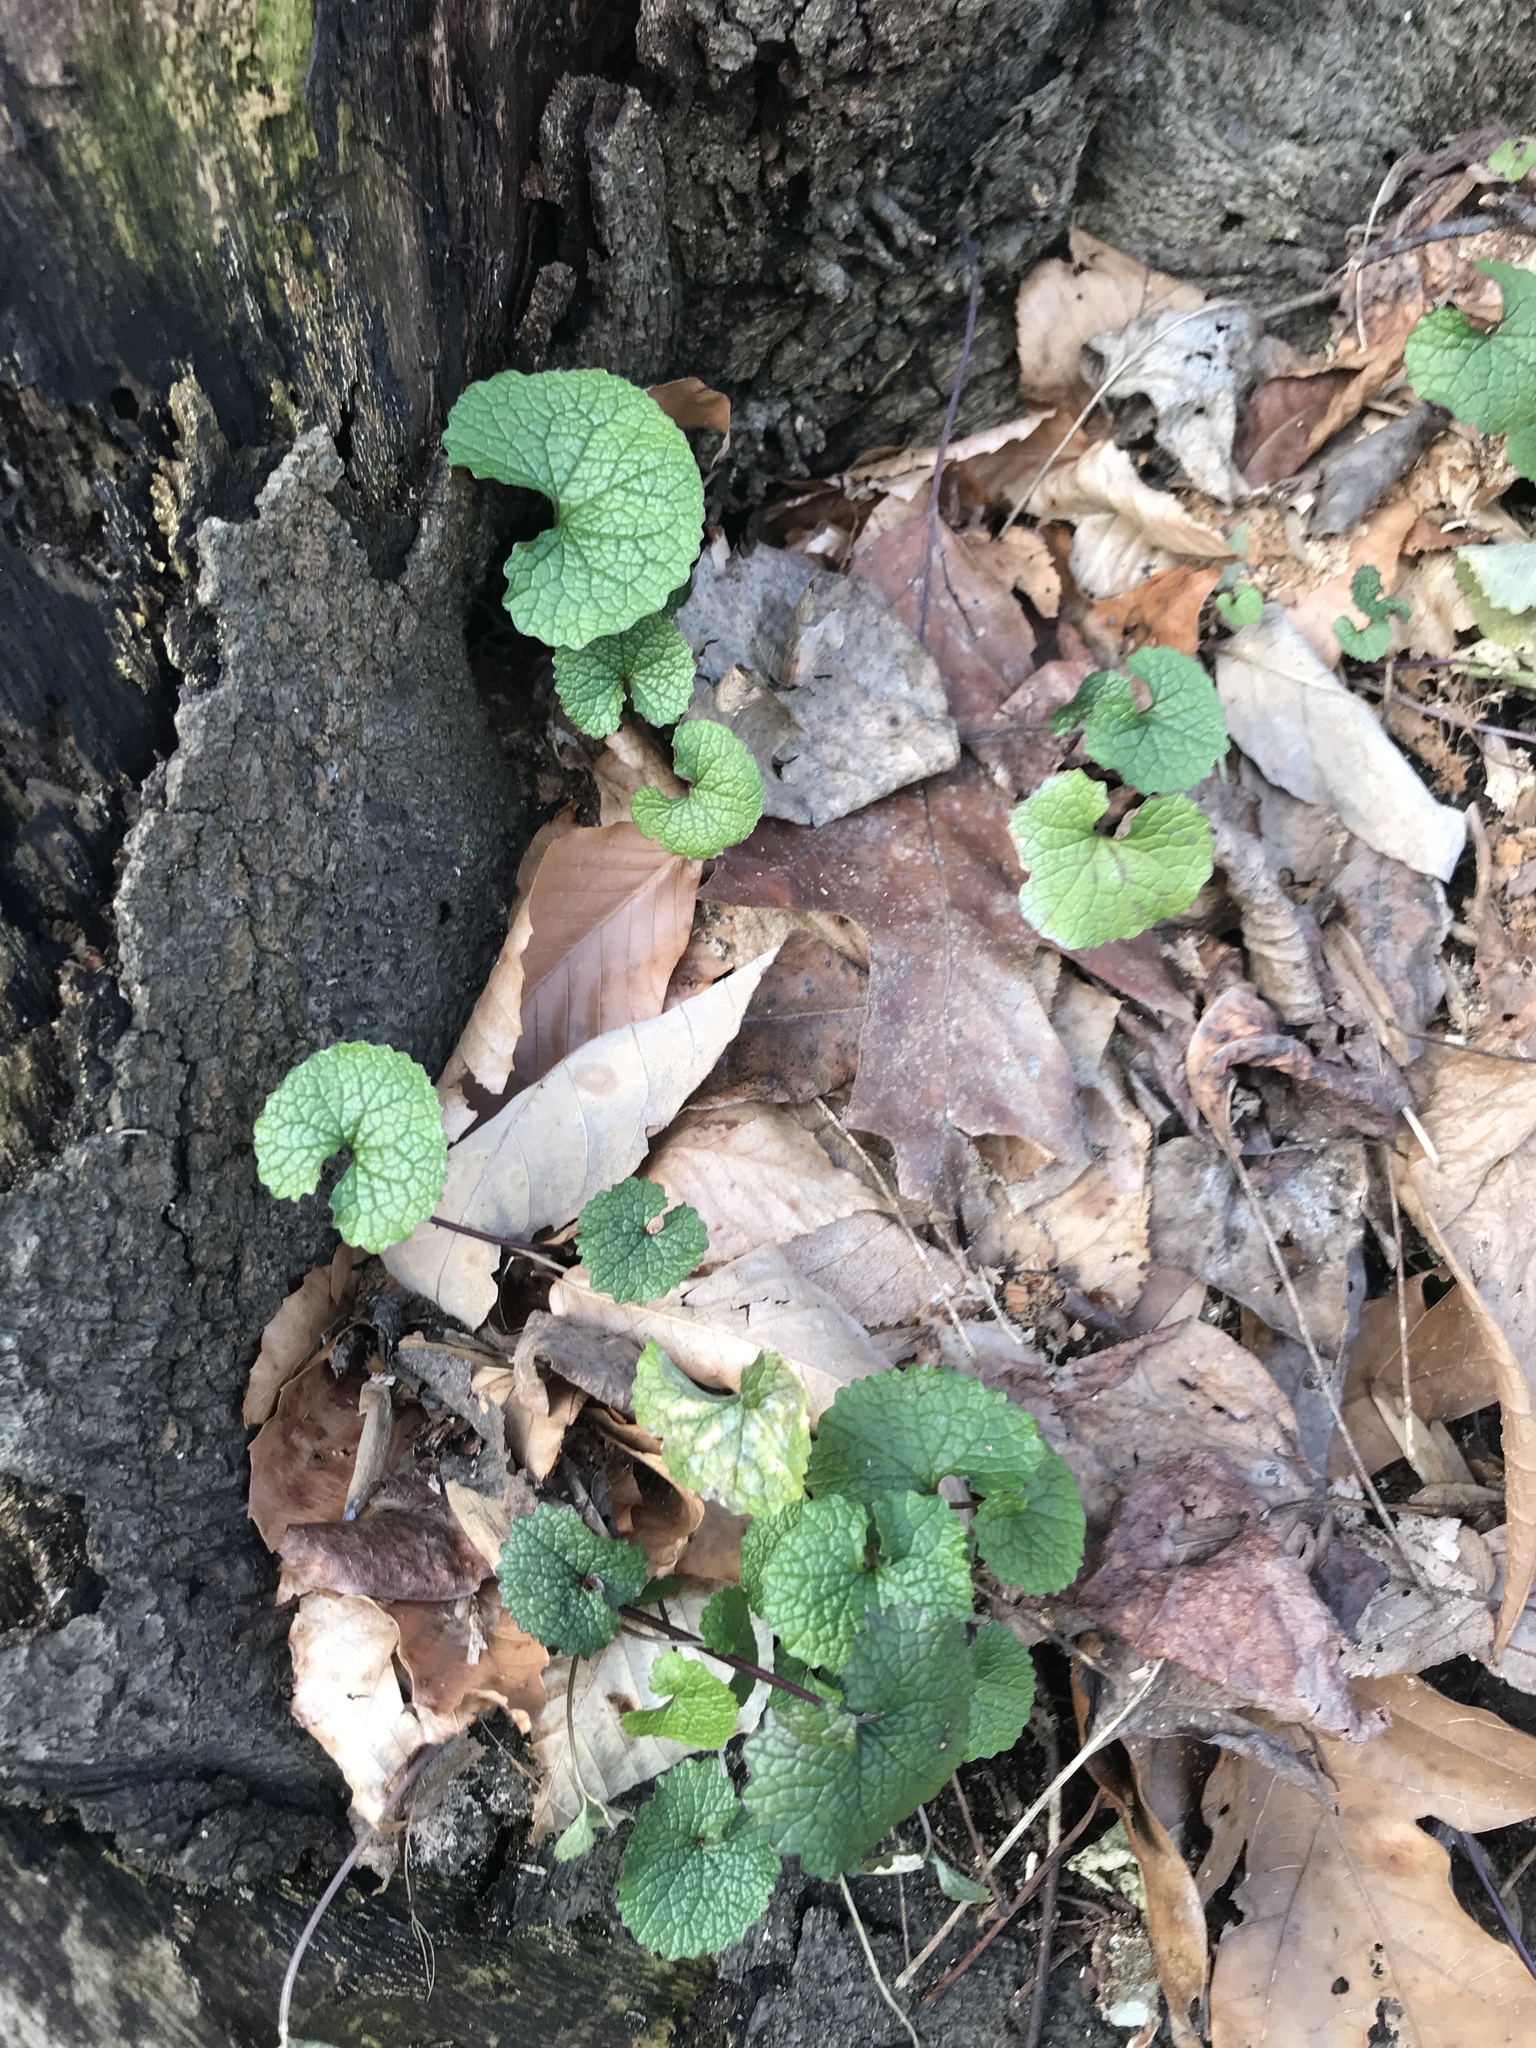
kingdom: Plantae
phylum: Tracheophyta
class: Magnoliopsida
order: Brassicales
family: Brassicaceae
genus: Alliaria
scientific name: Alliaria petiolata
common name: Garlic mustard
